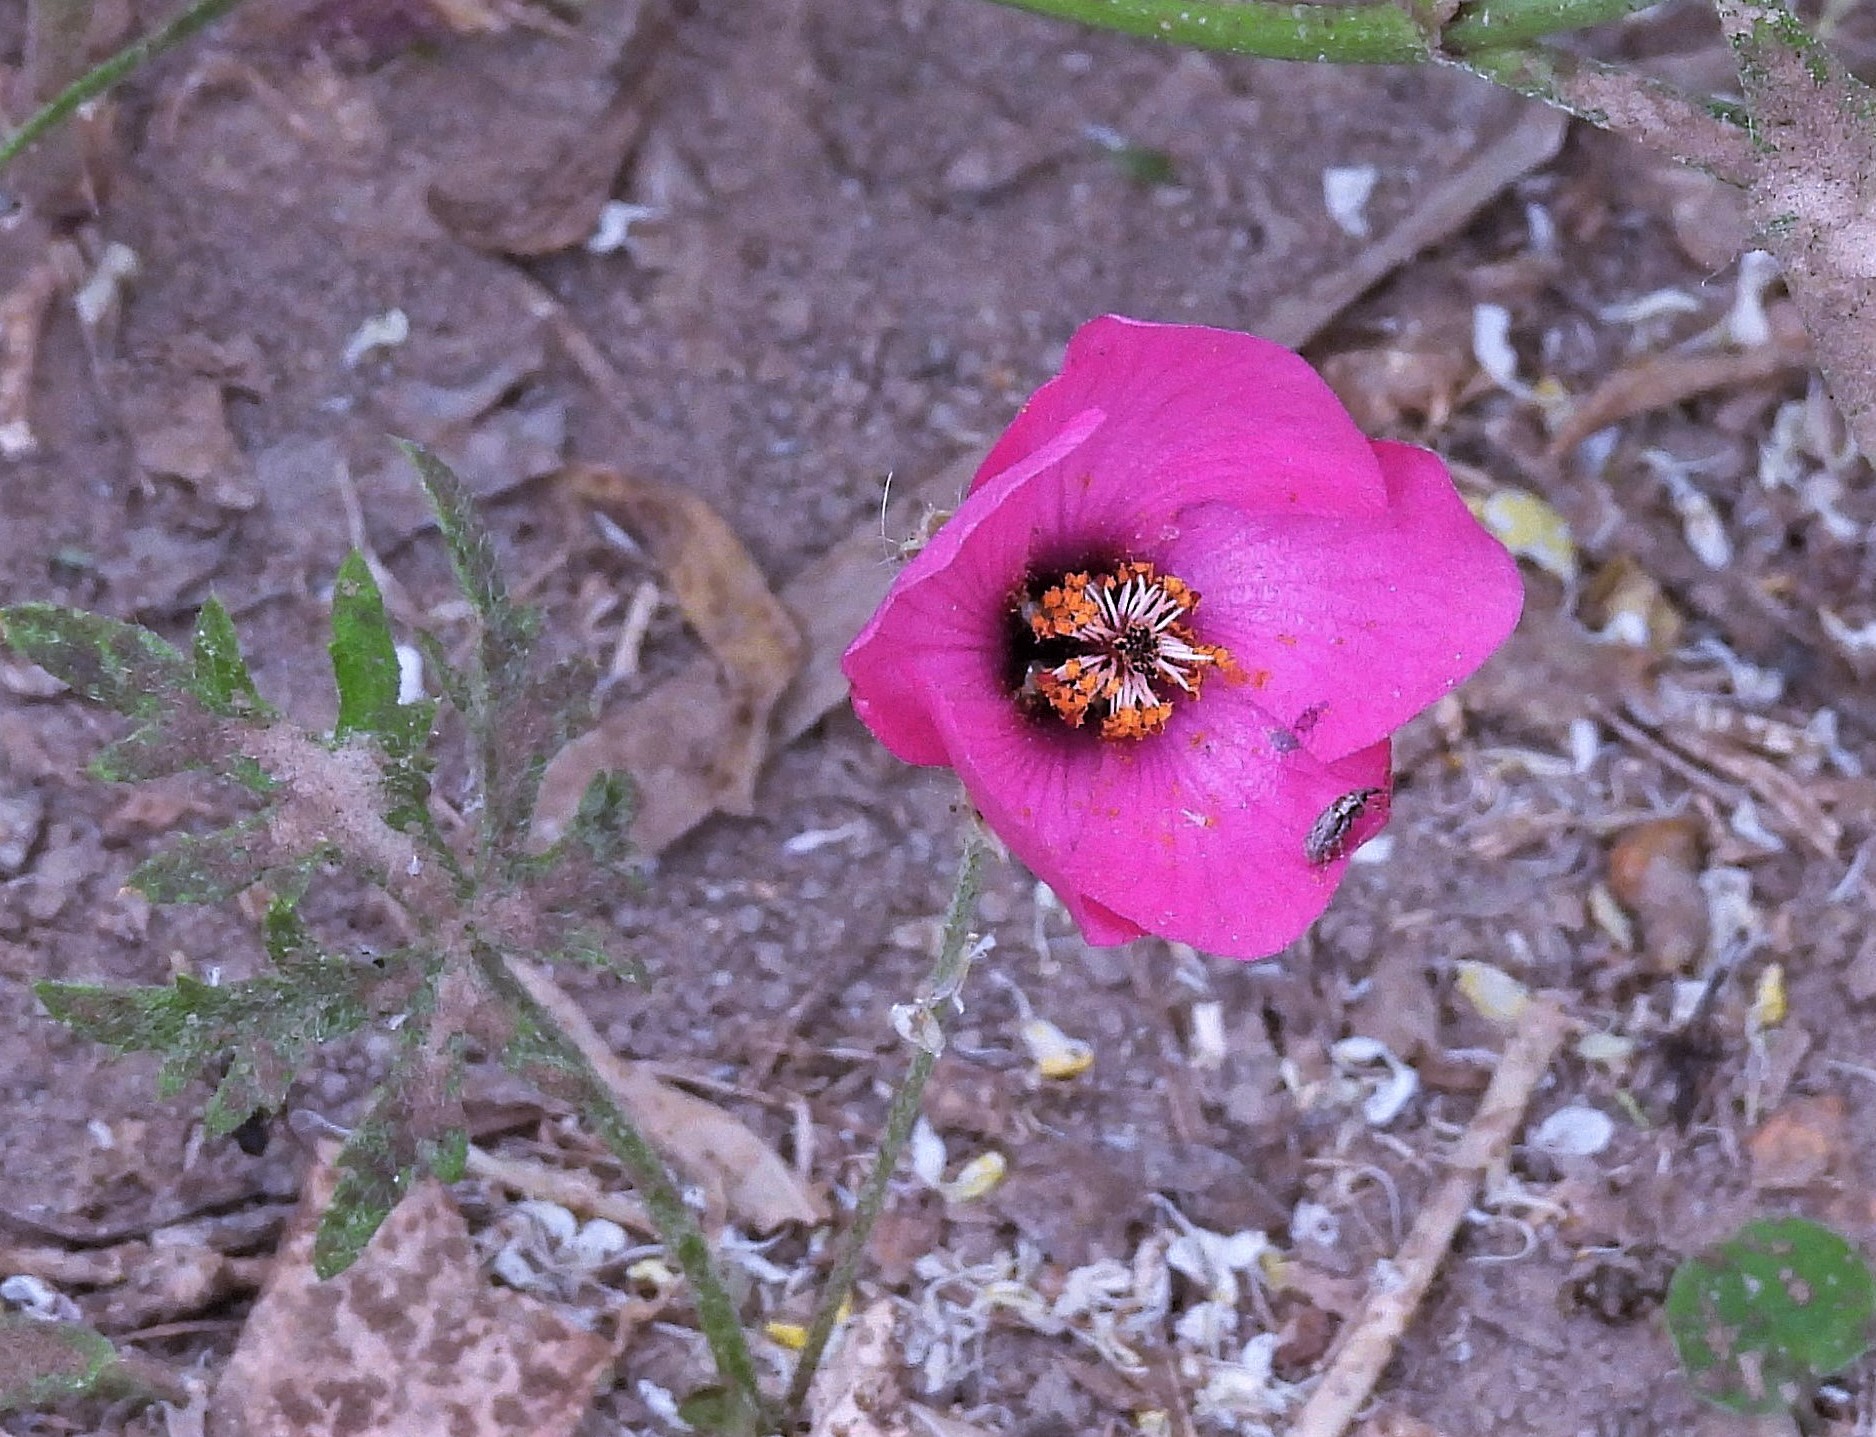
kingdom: Plantae
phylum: Tracheophyta
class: Magnoliopsida
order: Malvales
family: Malvaceae
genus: Modiolastrum
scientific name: Modiolastrum gilliesii
